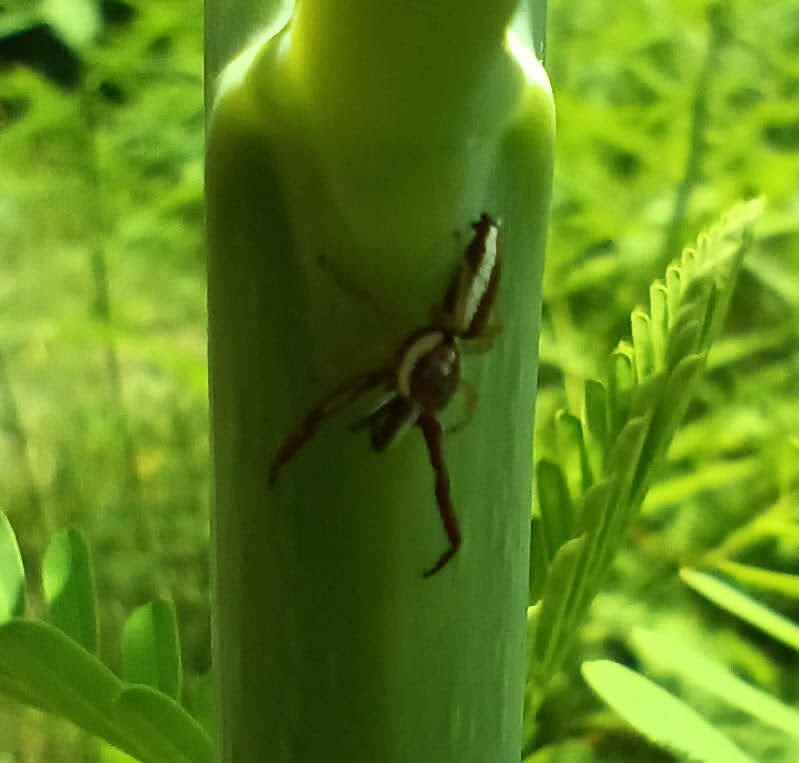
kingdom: Animalia
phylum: Arthropoda
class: Arachnida
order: Araneae
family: Salticidae
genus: Hentzia
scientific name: Hentzia palmarum
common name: Common hentz jumping spider
